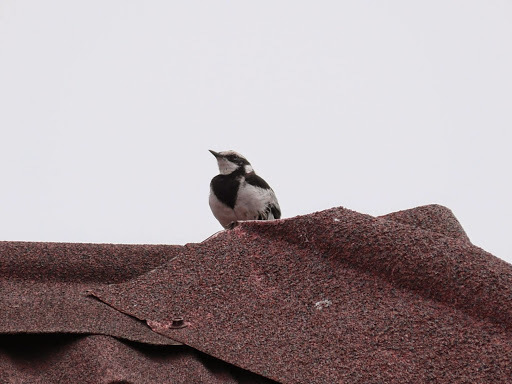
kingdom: Animalia
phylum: Chordata
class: Aves
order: Passeriformes
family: Motacillidae
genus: Motacilla
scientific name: Motacilla aguimp
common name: African pied wagtail
